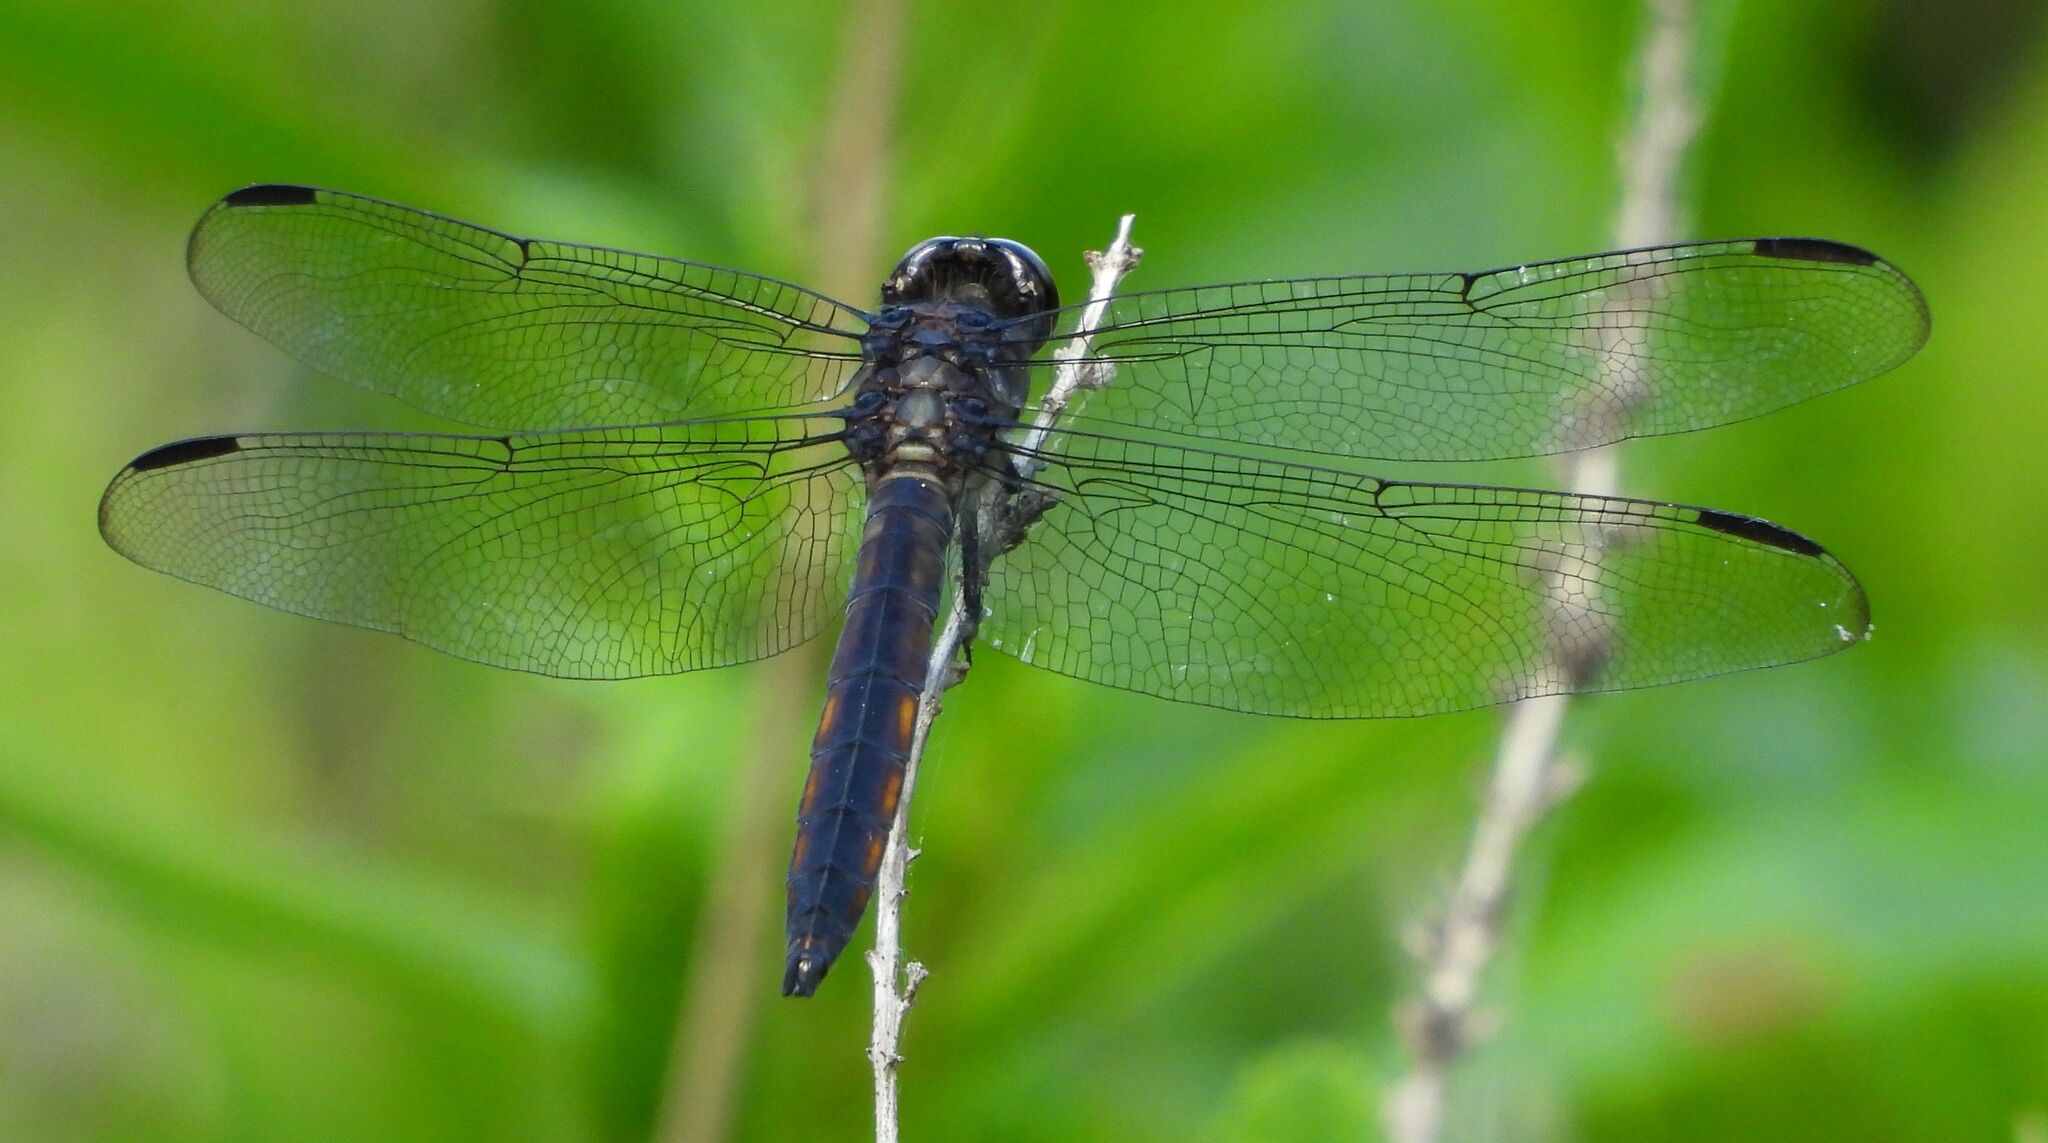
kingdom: Animalia
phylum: Arthropoda
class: Insecta
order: Odonata
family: Libellulidae
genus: Libellula
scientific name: Libellula incesta
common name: Slaty skimmer
